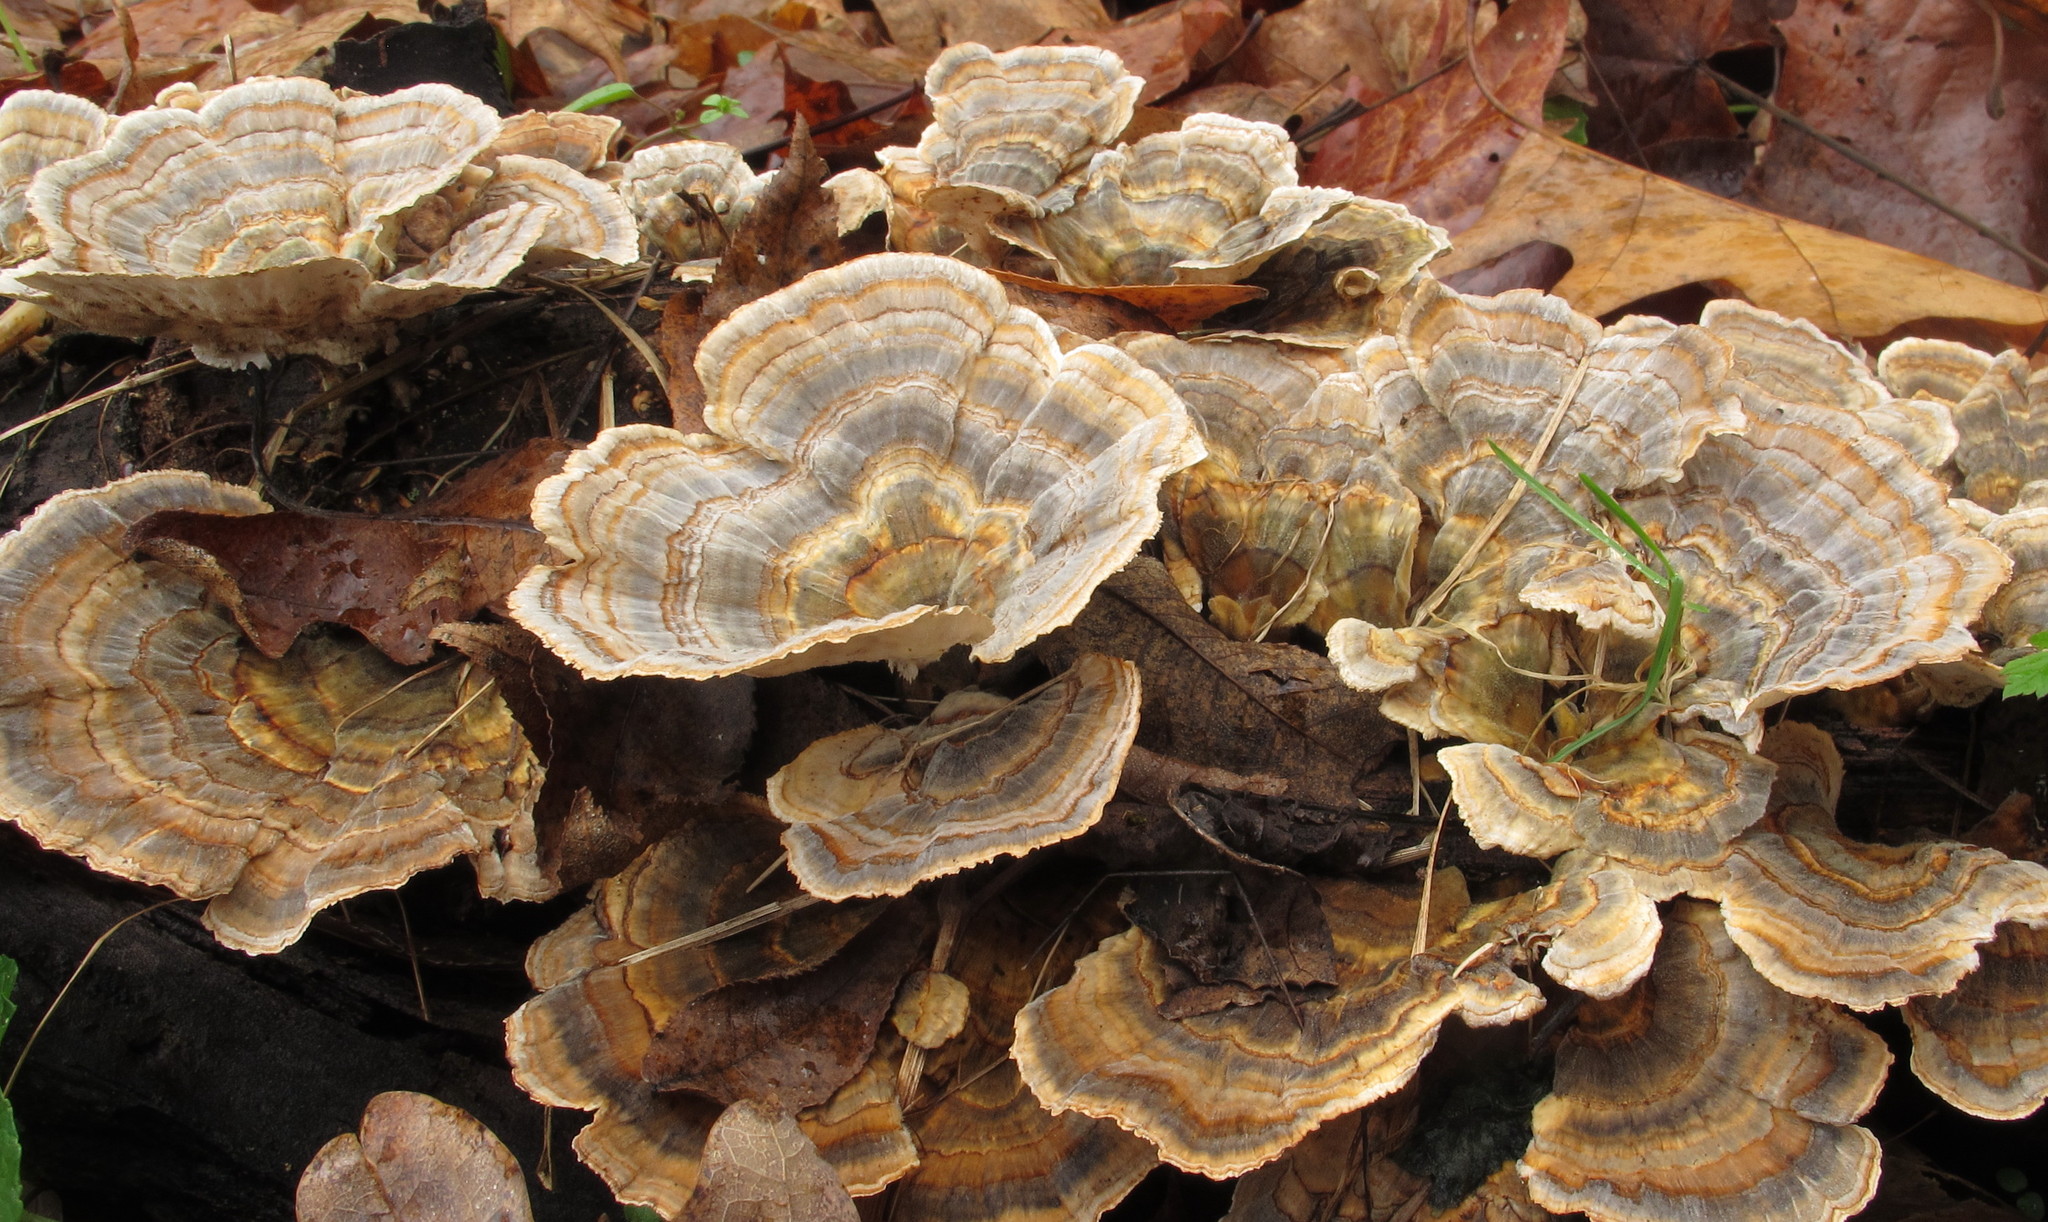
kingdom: Fungi
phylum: Basidiomycota
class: Agaricomycetes
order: Polyporales
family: Polyporaceae
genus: Trametes
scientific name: Trametes versicolor
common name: Turkeytail
